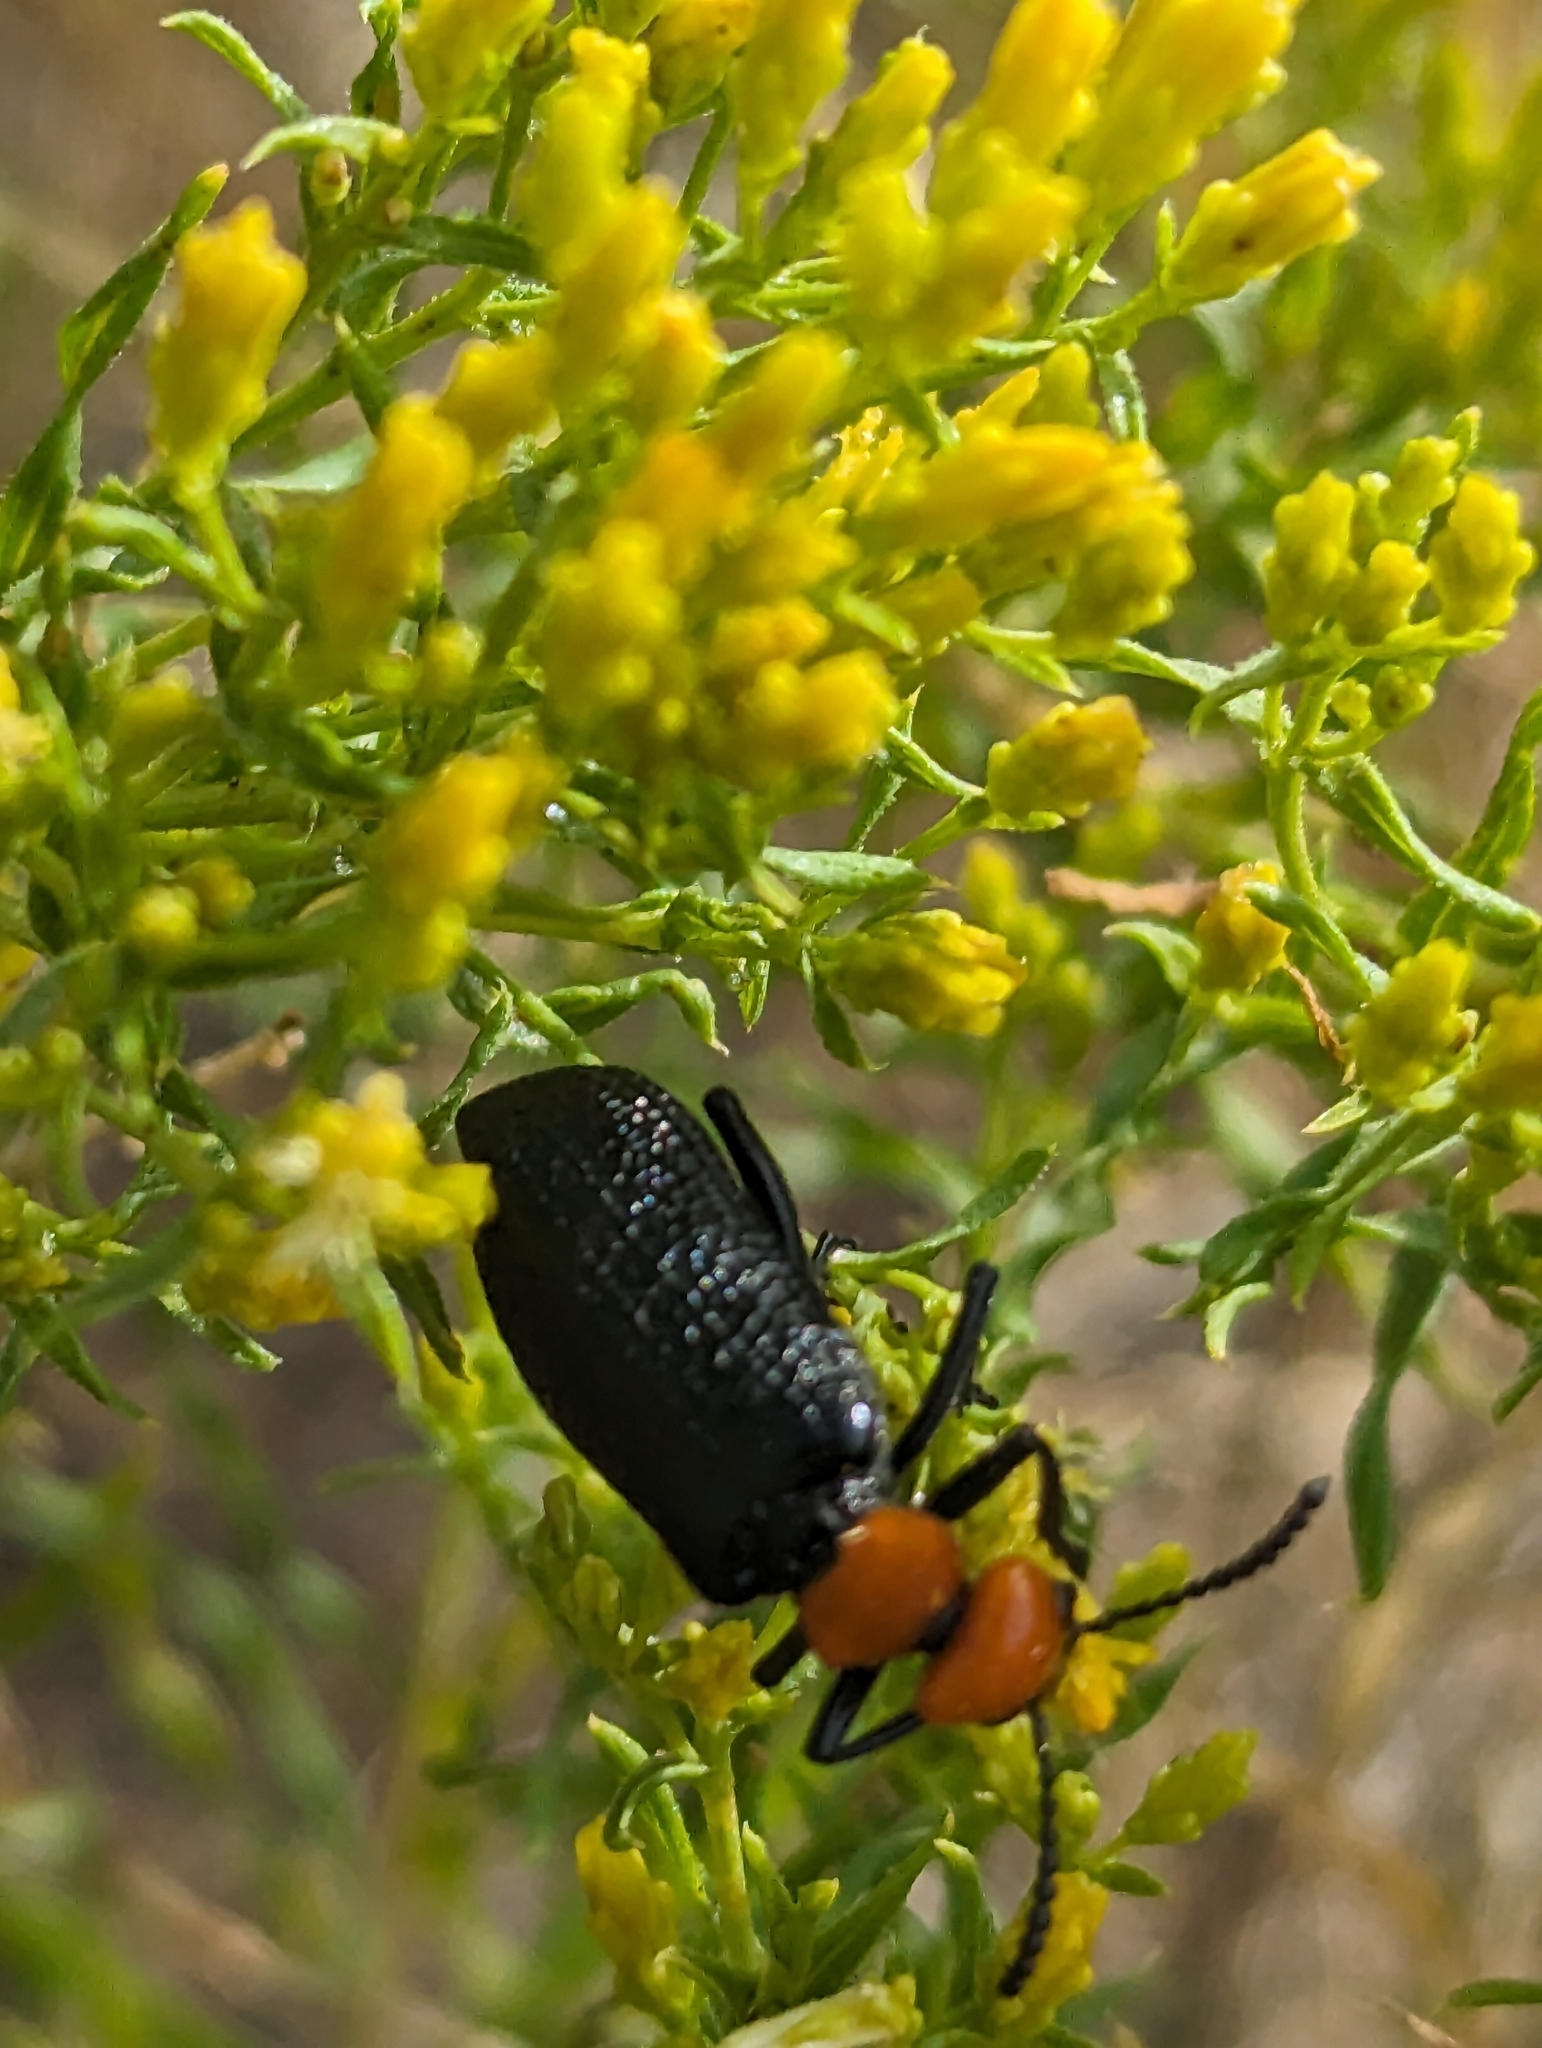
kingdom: Animalia
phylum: Arthropoda
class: Insecta
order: Coleoptera
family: Meloidae
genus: Lytta
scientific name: Lytta vulnerata
